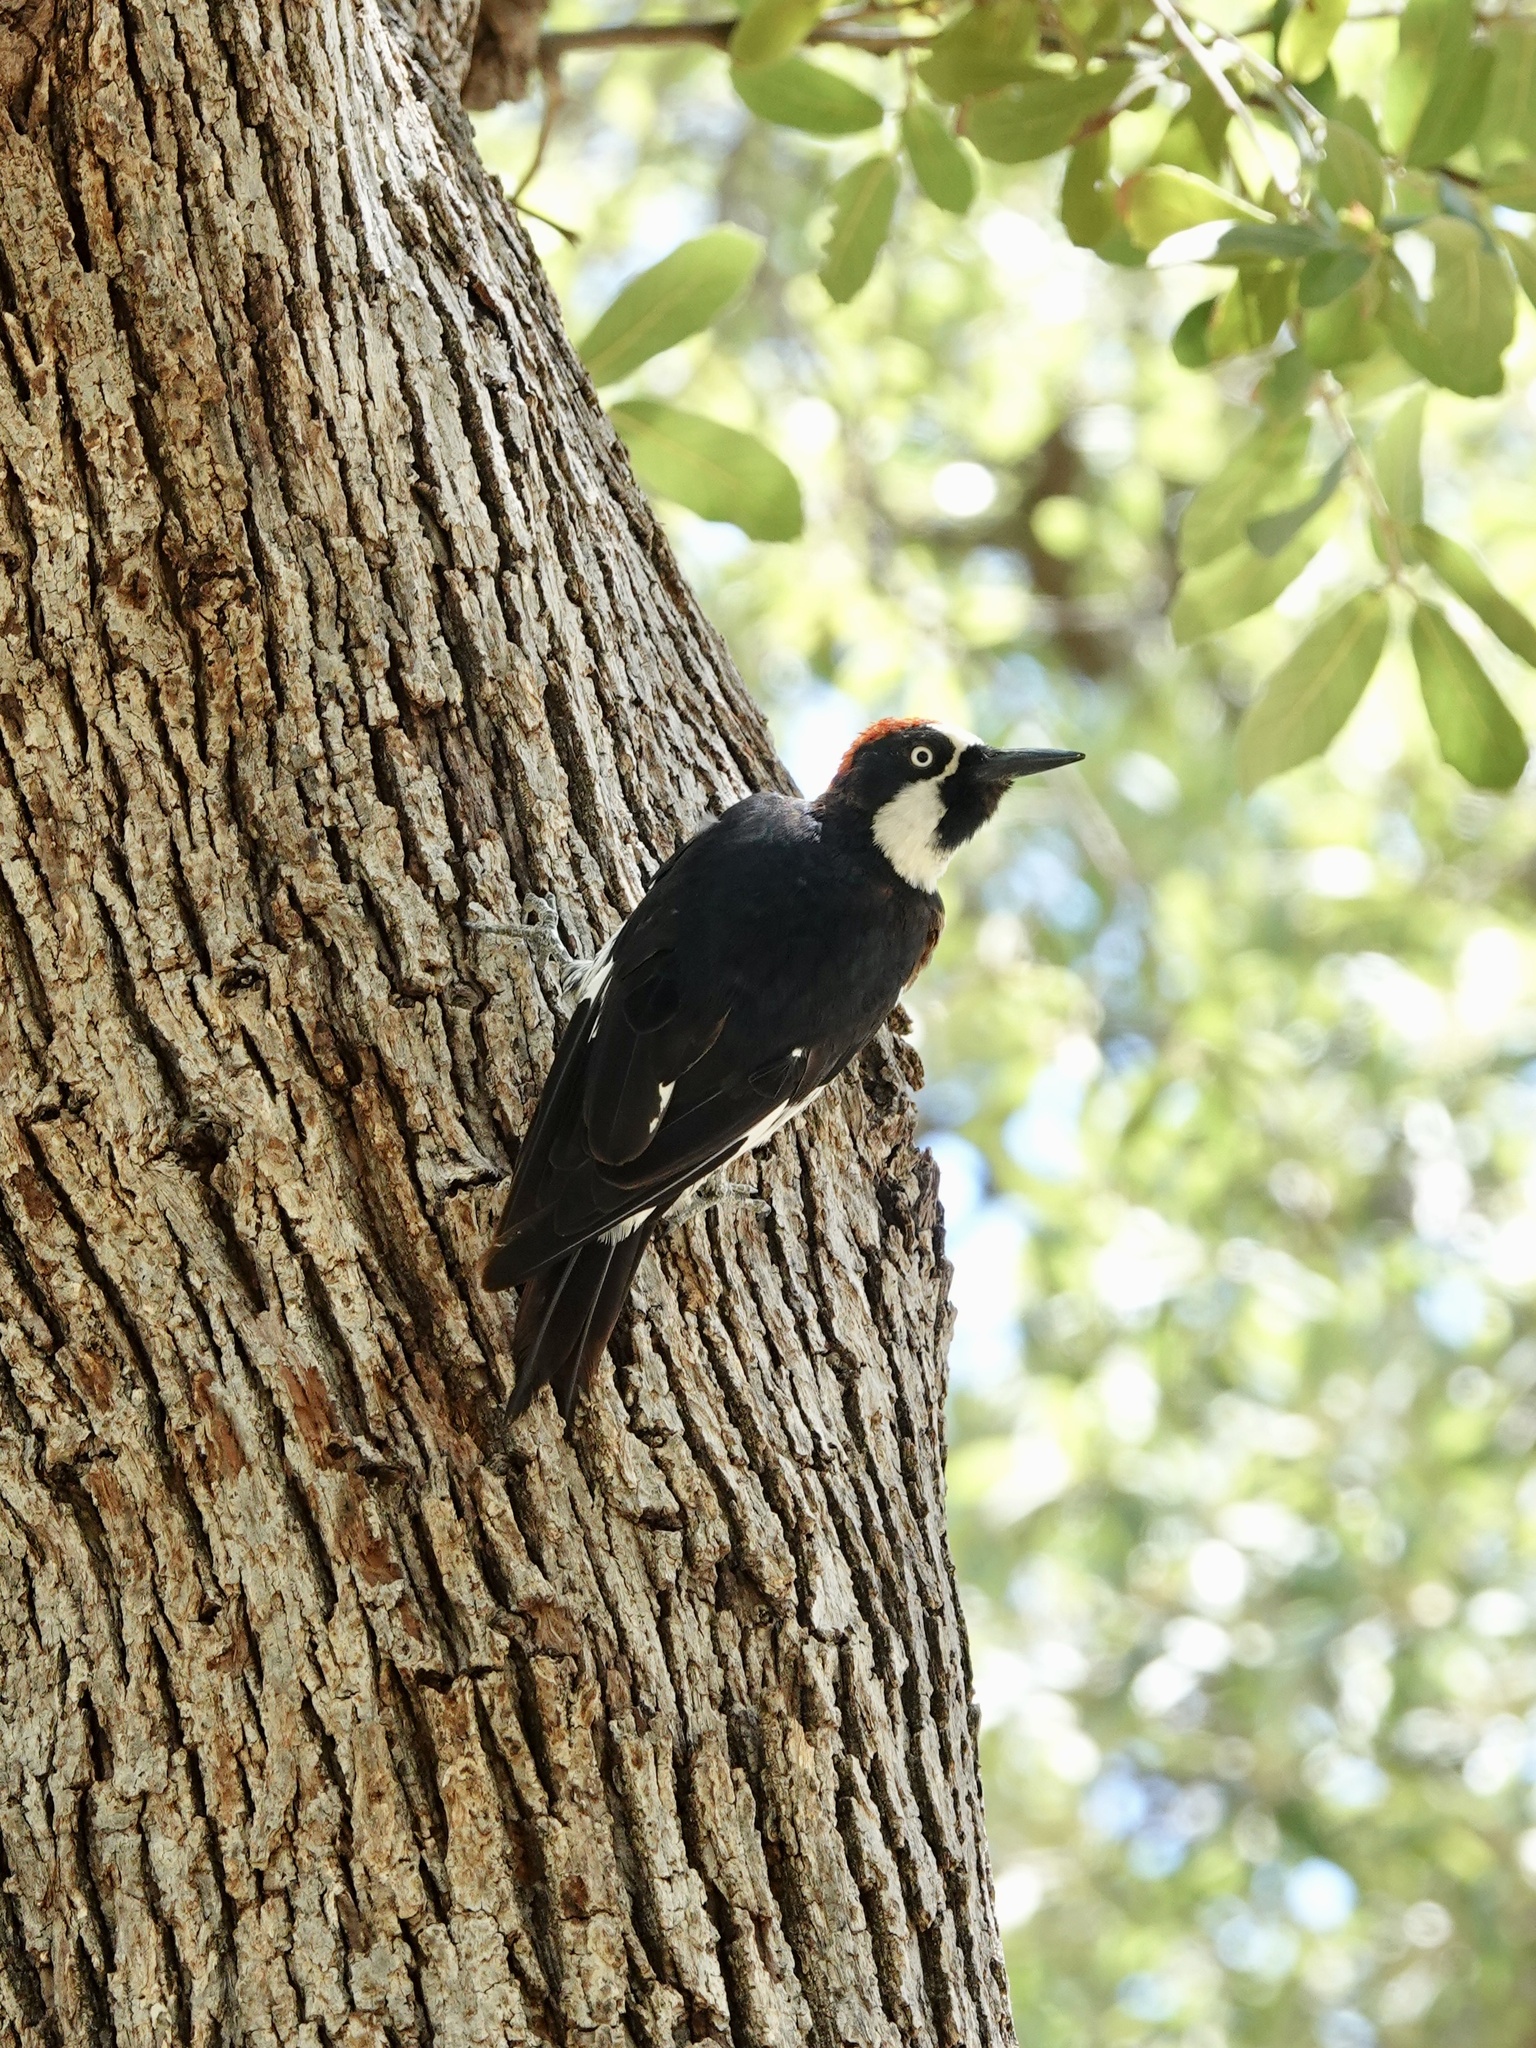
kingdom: Animalia
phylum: Chordata
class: Aves
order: Piciformes
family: Picidae
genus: Melanerpes
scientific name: Melanerpes formicivorus
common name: Acorn woodpecker
